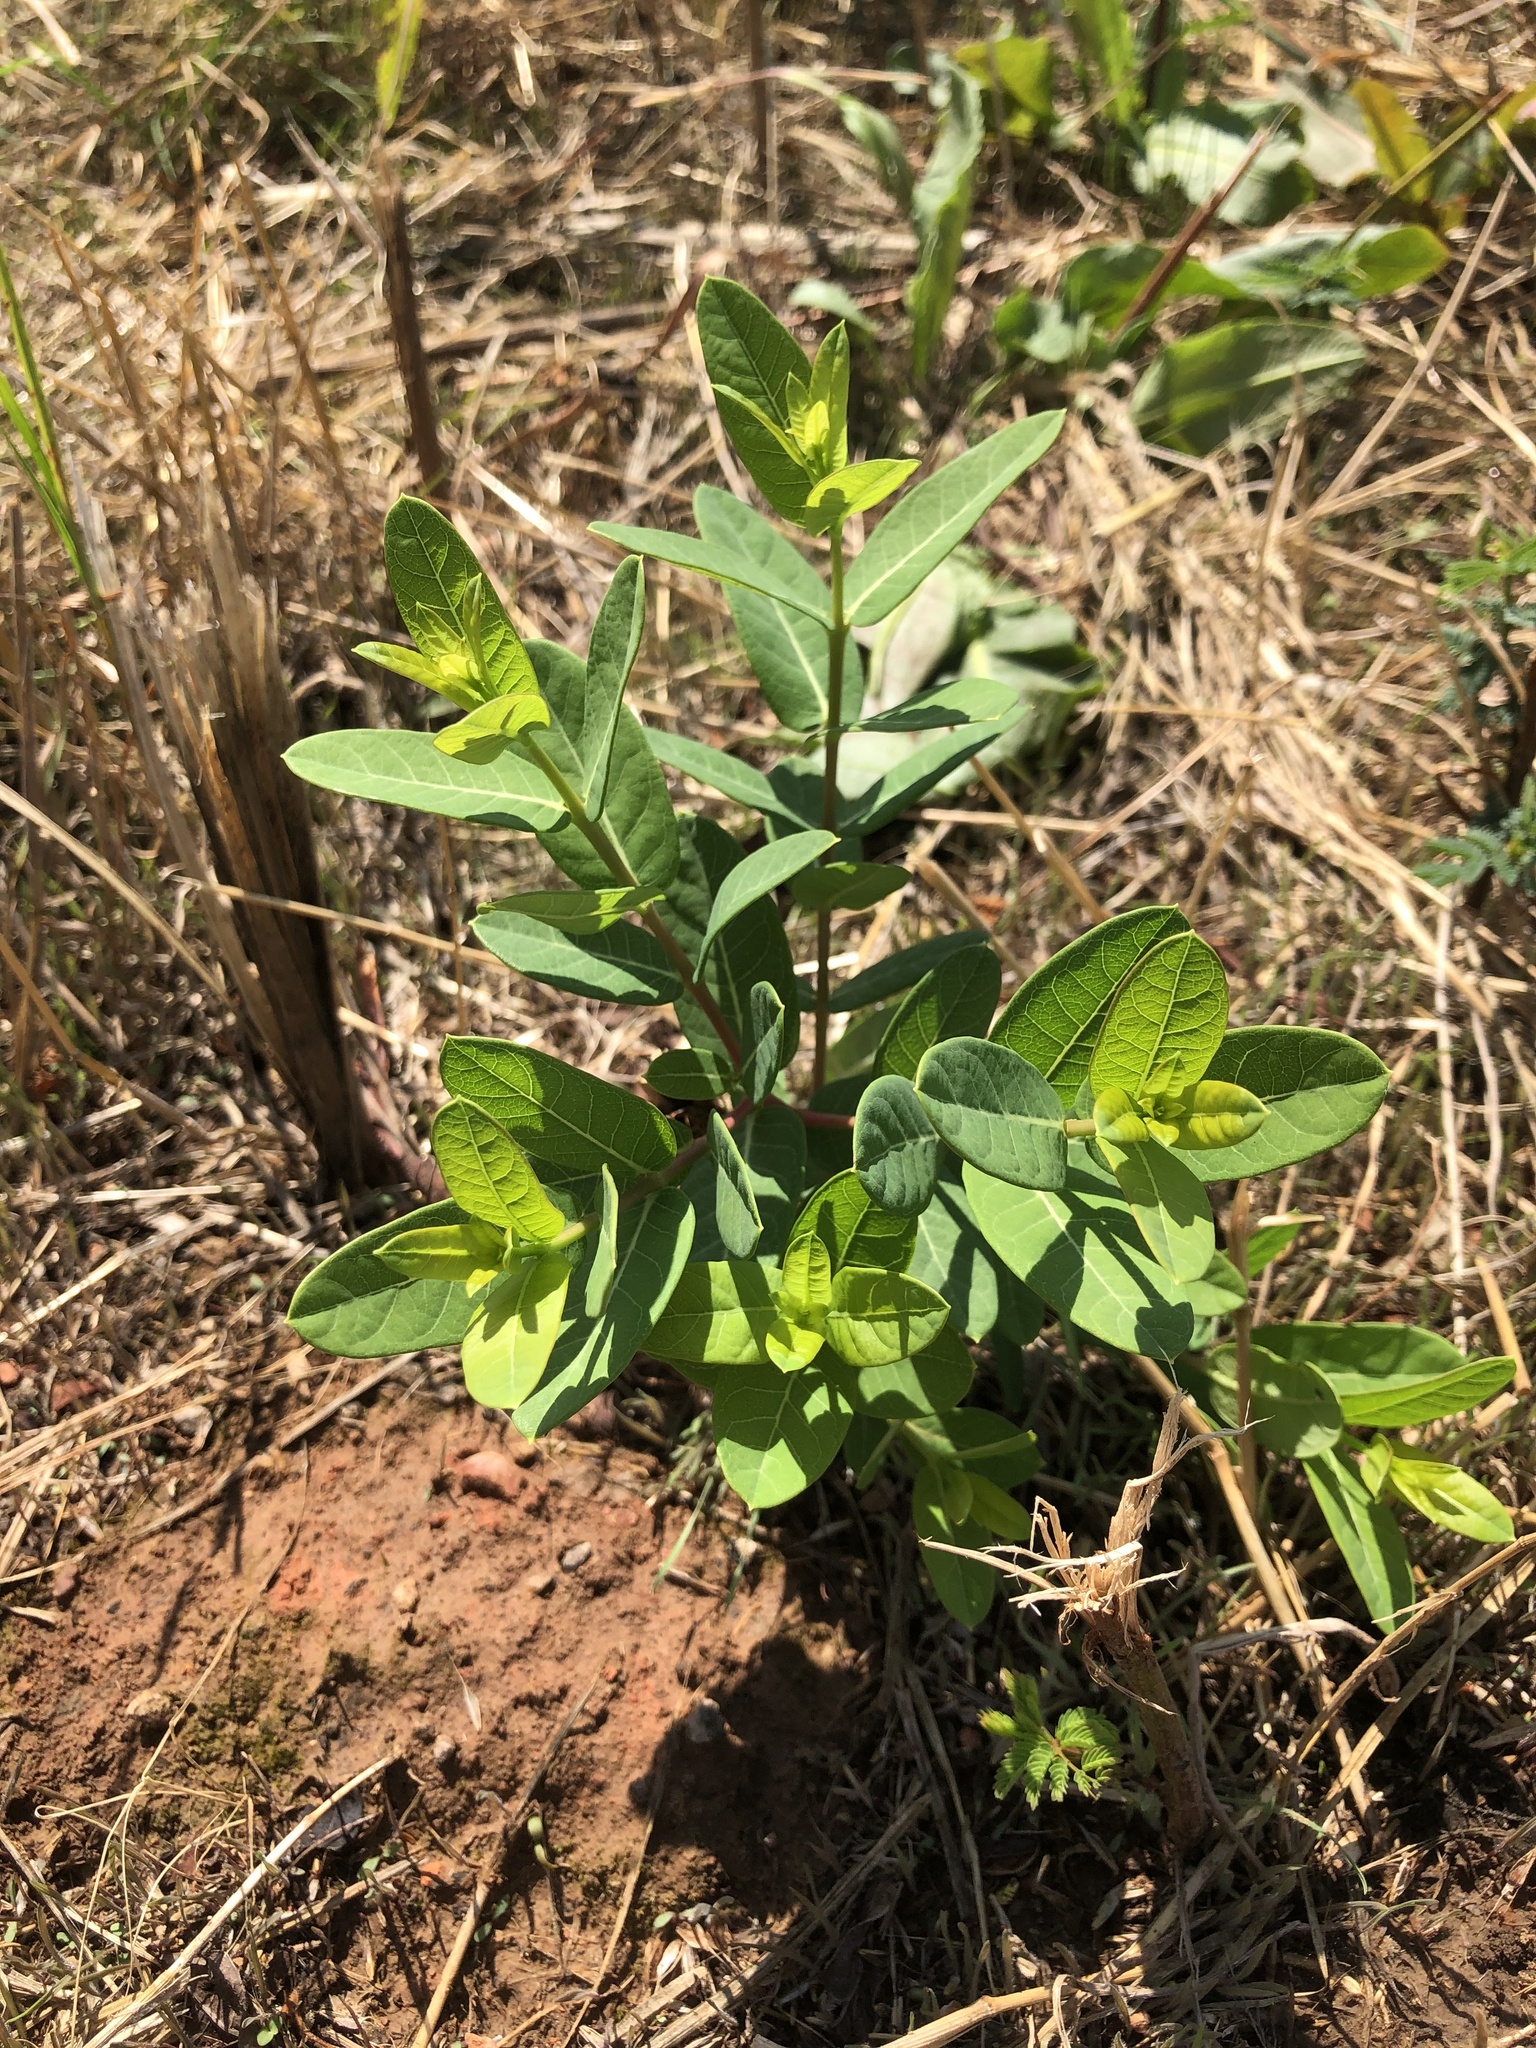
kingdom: Plantae
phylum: Tracheophyta
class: Magnoliopsida
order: Gentianales
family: Apocynaceae
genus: Apocynum
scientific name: Apocynum cannabinum
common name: Hemp dogbane
